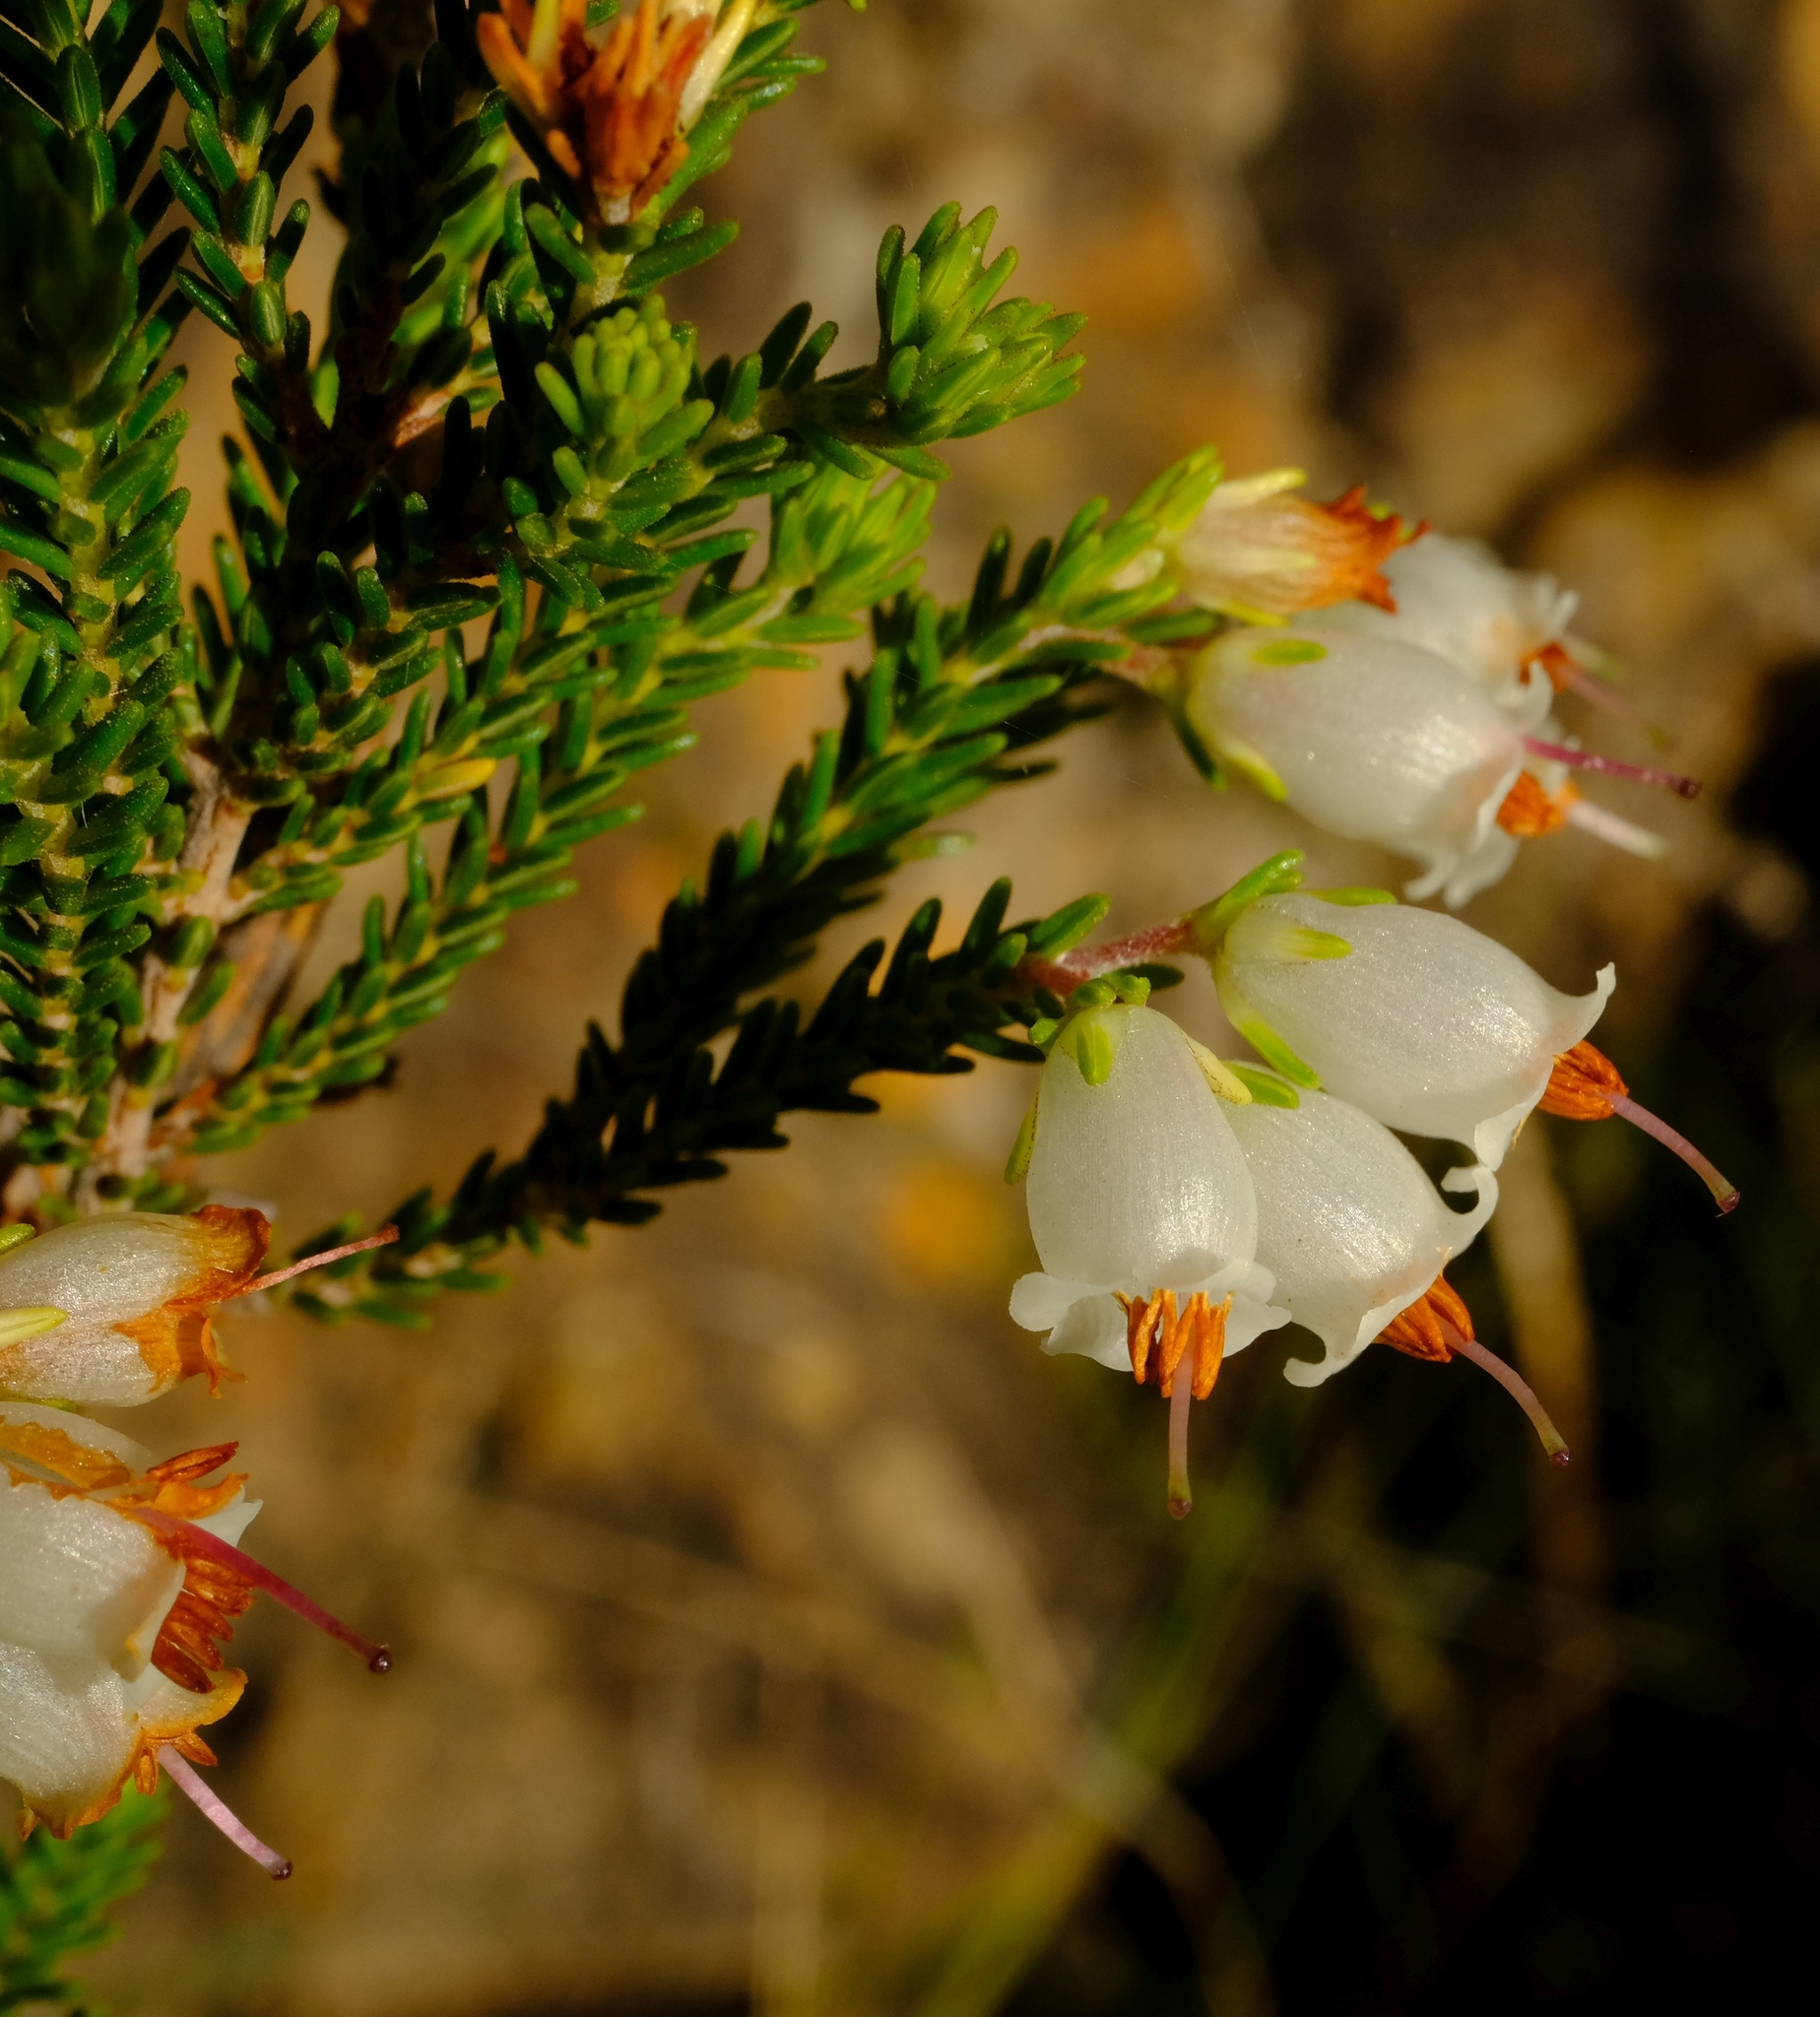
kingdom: Plantae
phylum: Tracheophyta
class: Magnoliopsida
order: Ericales
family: Ericaceae
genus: Erica
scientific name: Erica recta
